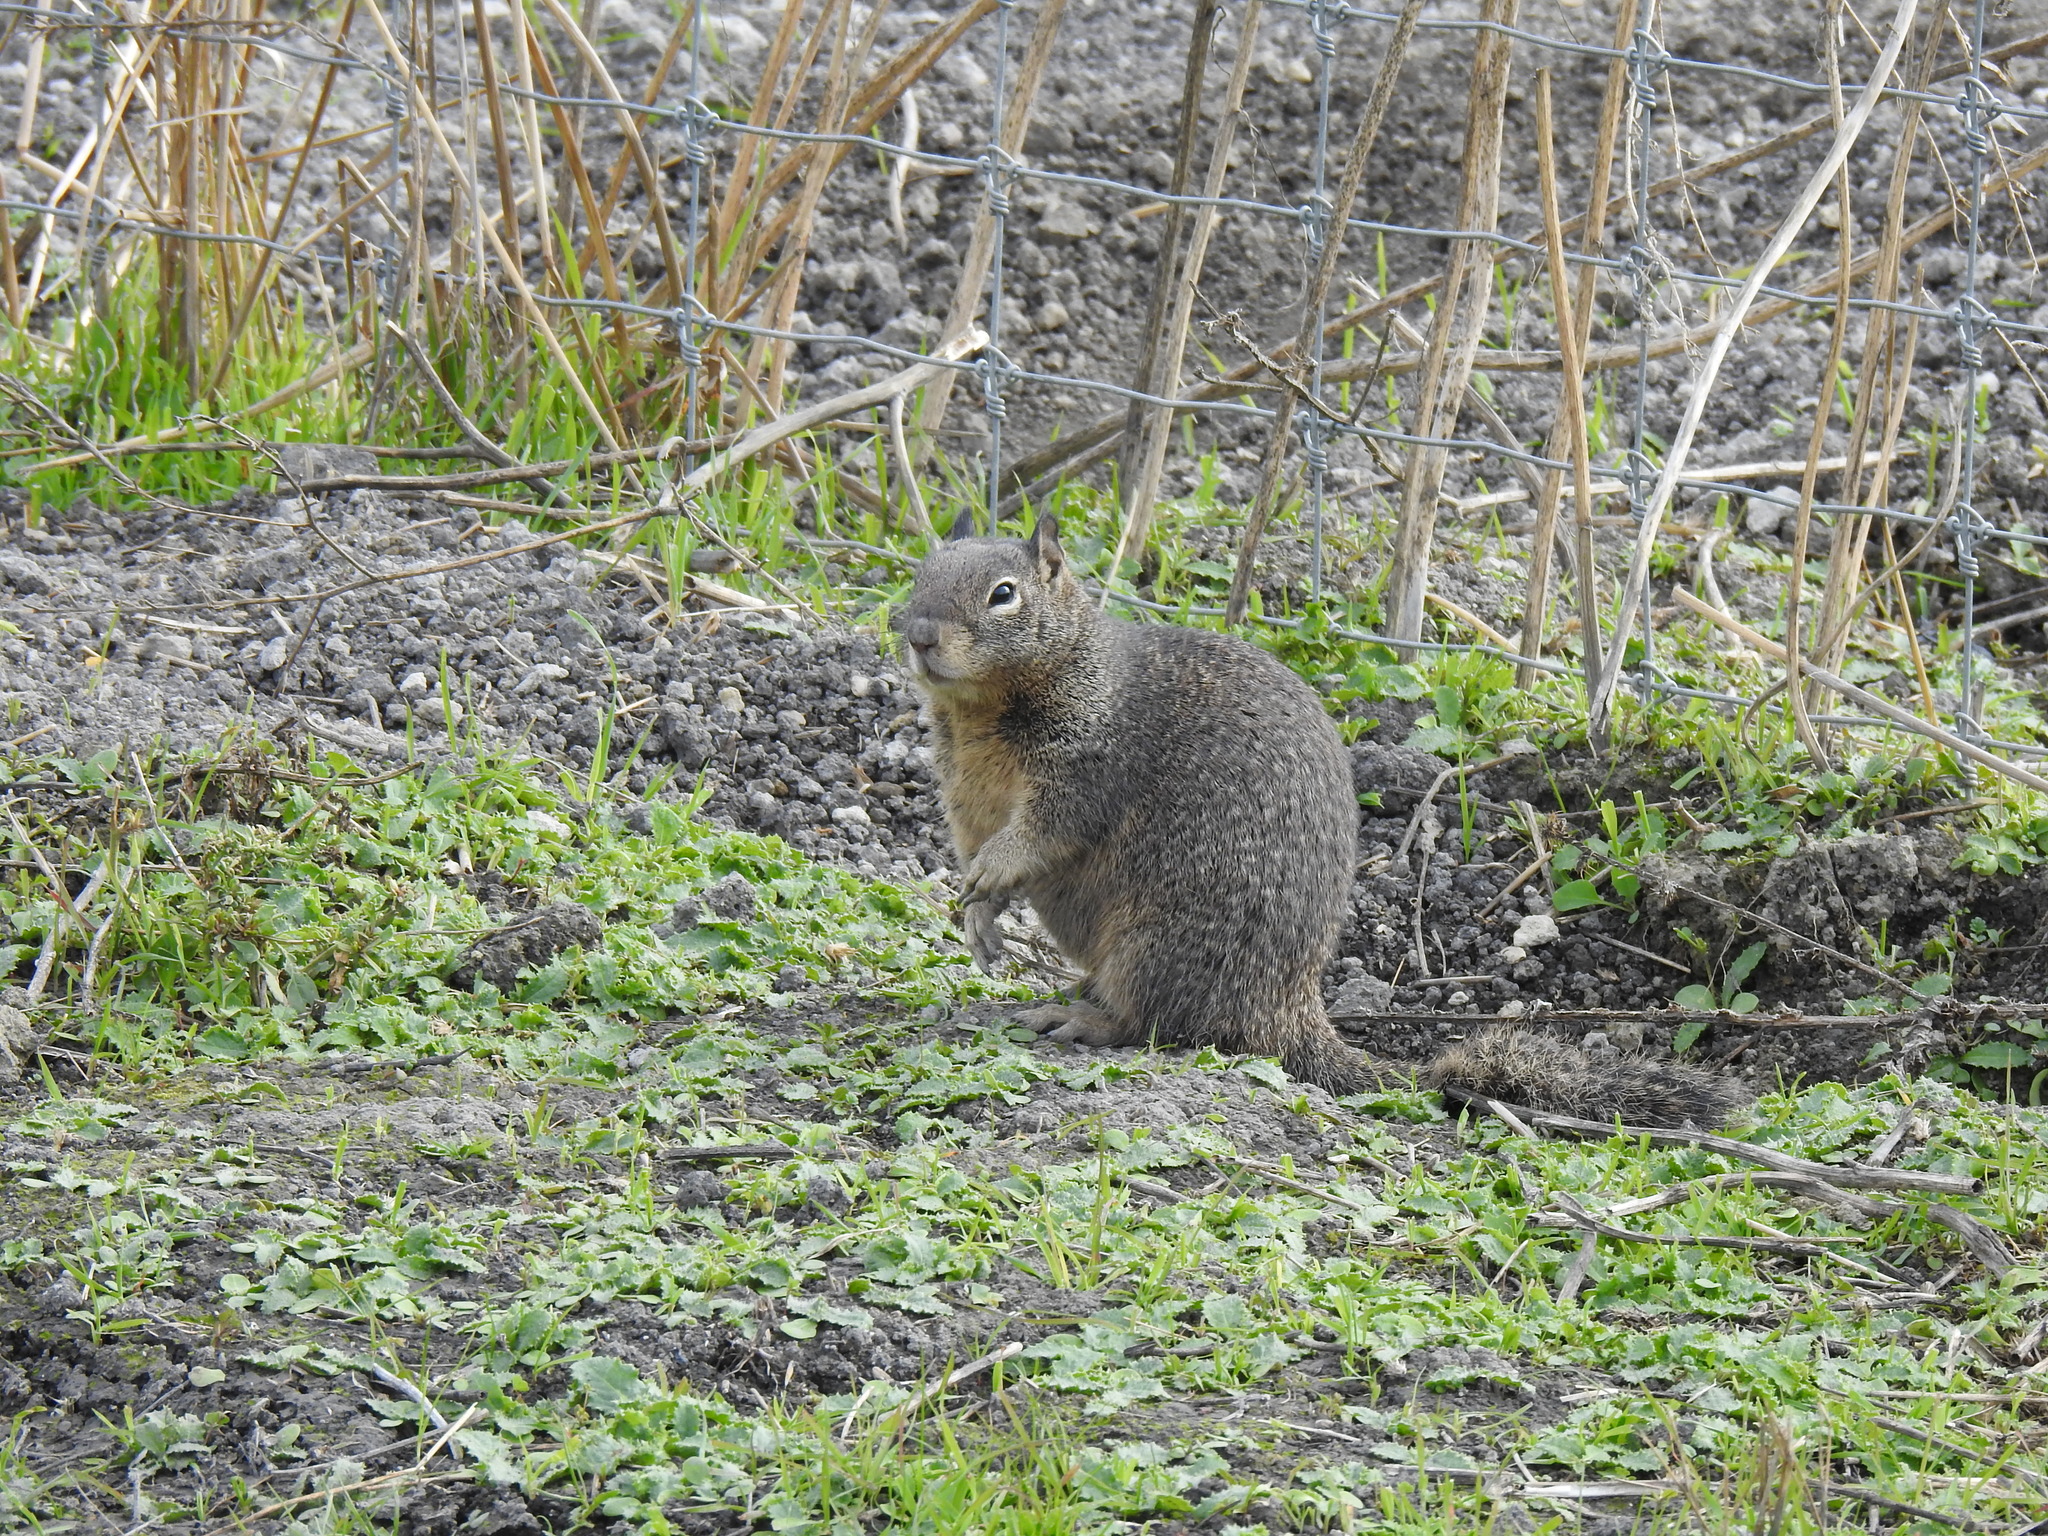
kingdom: Animalia
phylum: Chordata
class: Mammalia
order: Rodentia
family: Sciuridae
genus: Otospermophilus
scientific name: Otospermophilus beecheyi
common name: California ground squirrel
